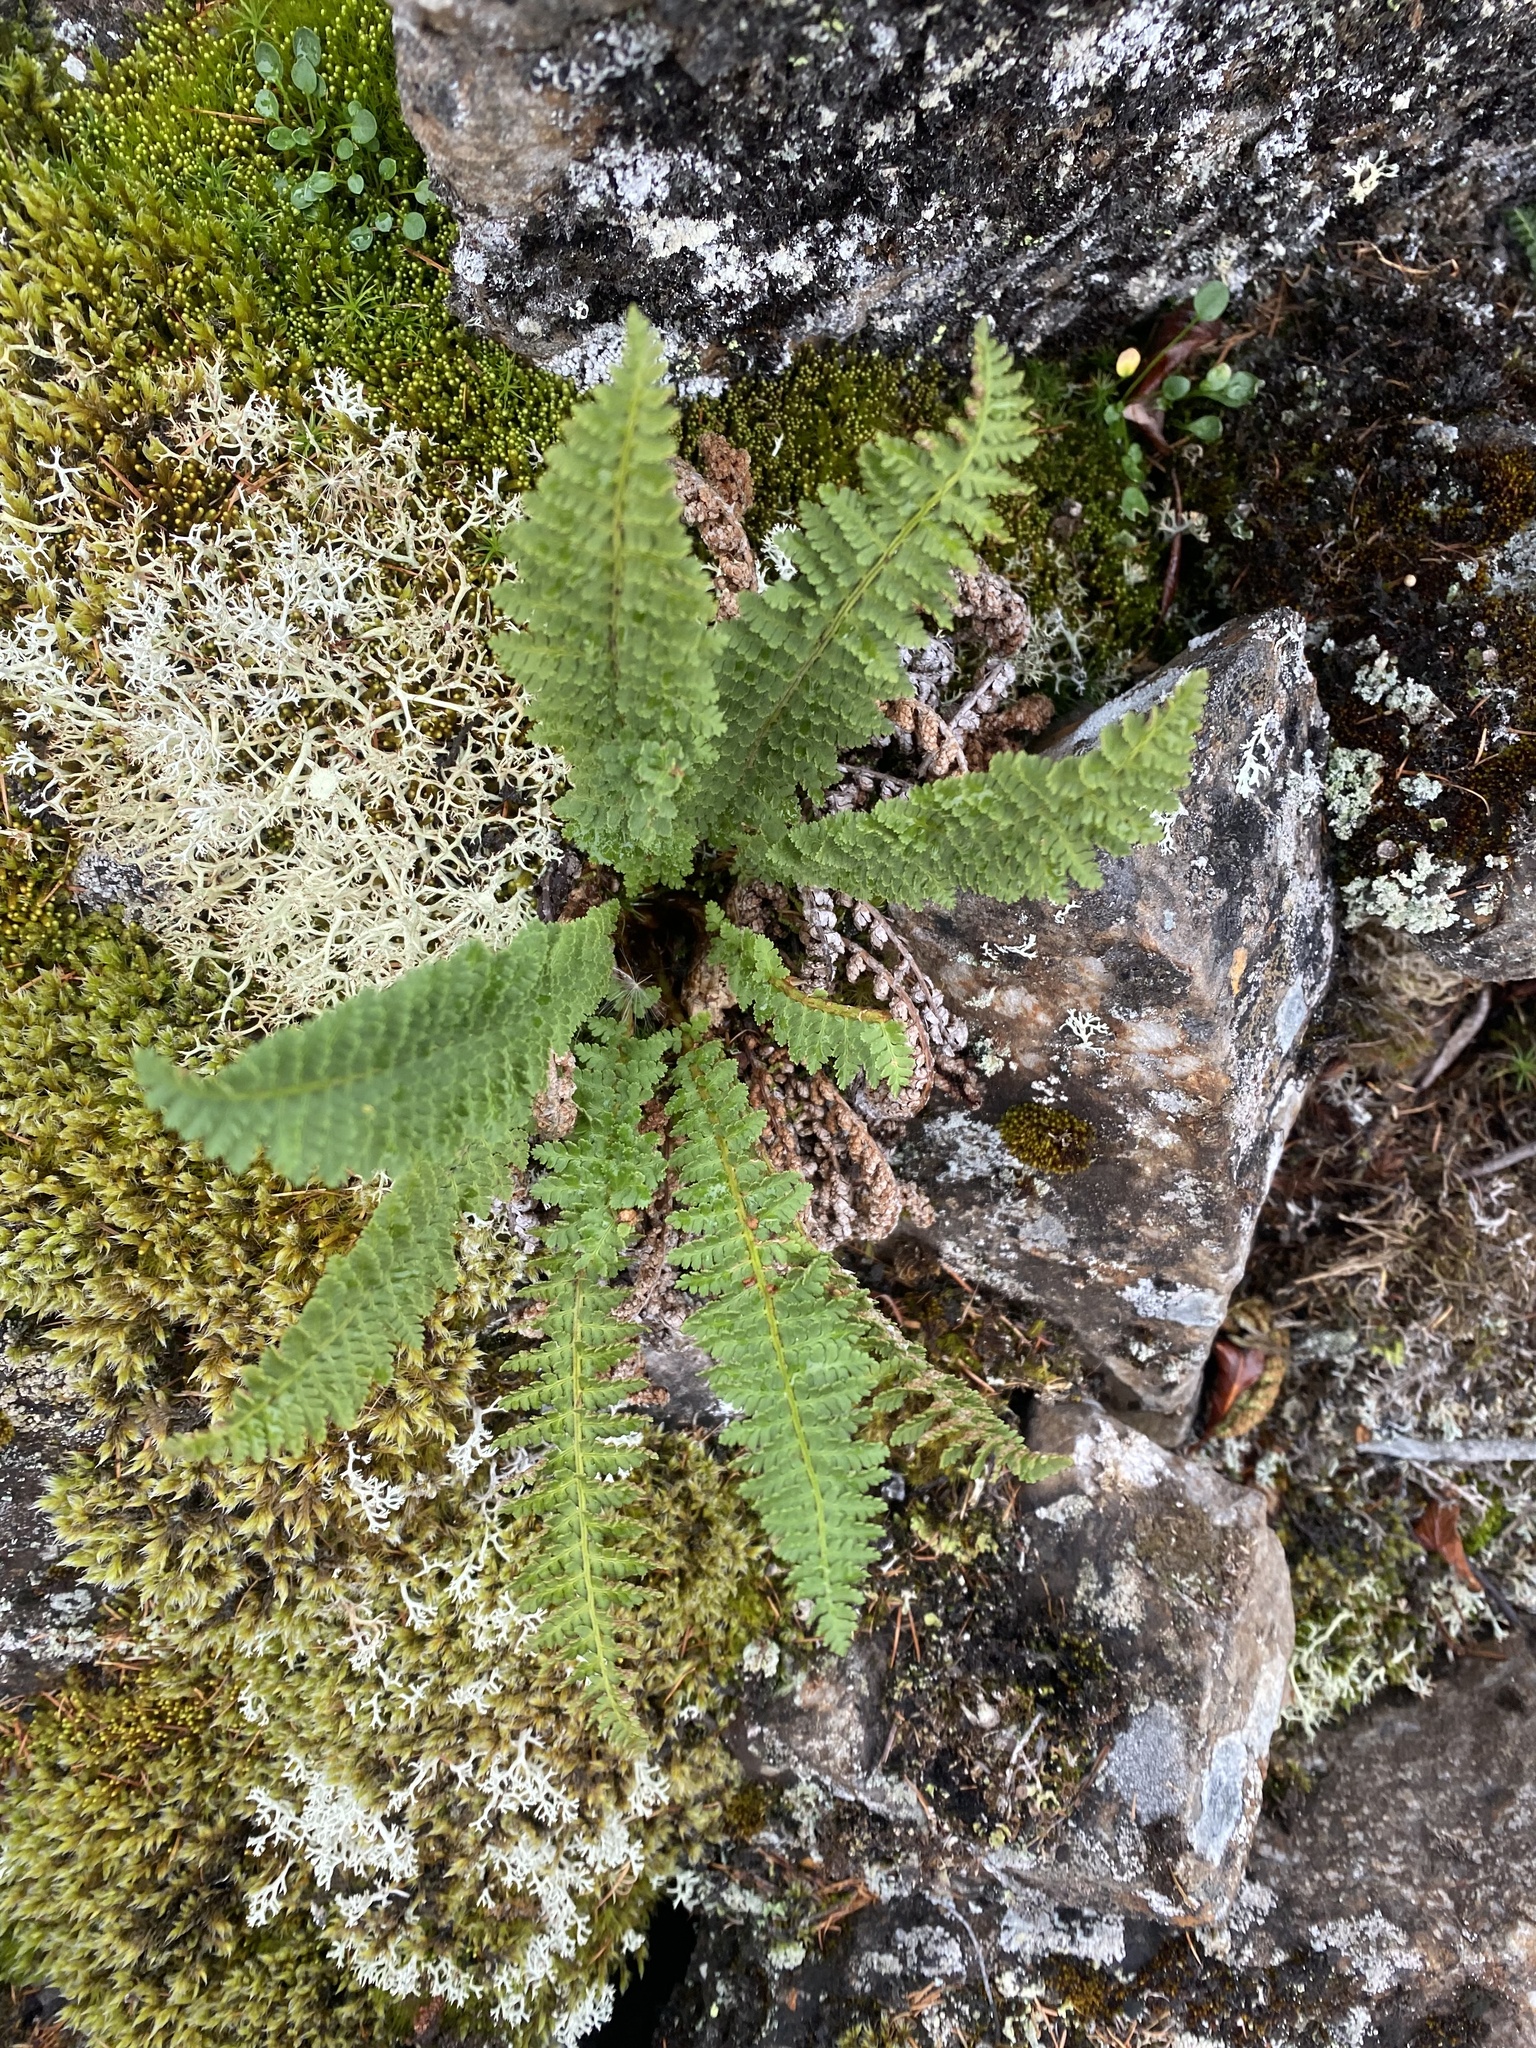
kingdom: Plantae
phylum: Tracheophyta
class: Polypodiopsida
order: Polypodiales
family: Dryopteridaceae
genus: Dryopteris
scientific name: Dryopteris fragrans
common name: Fragrant wood fern
